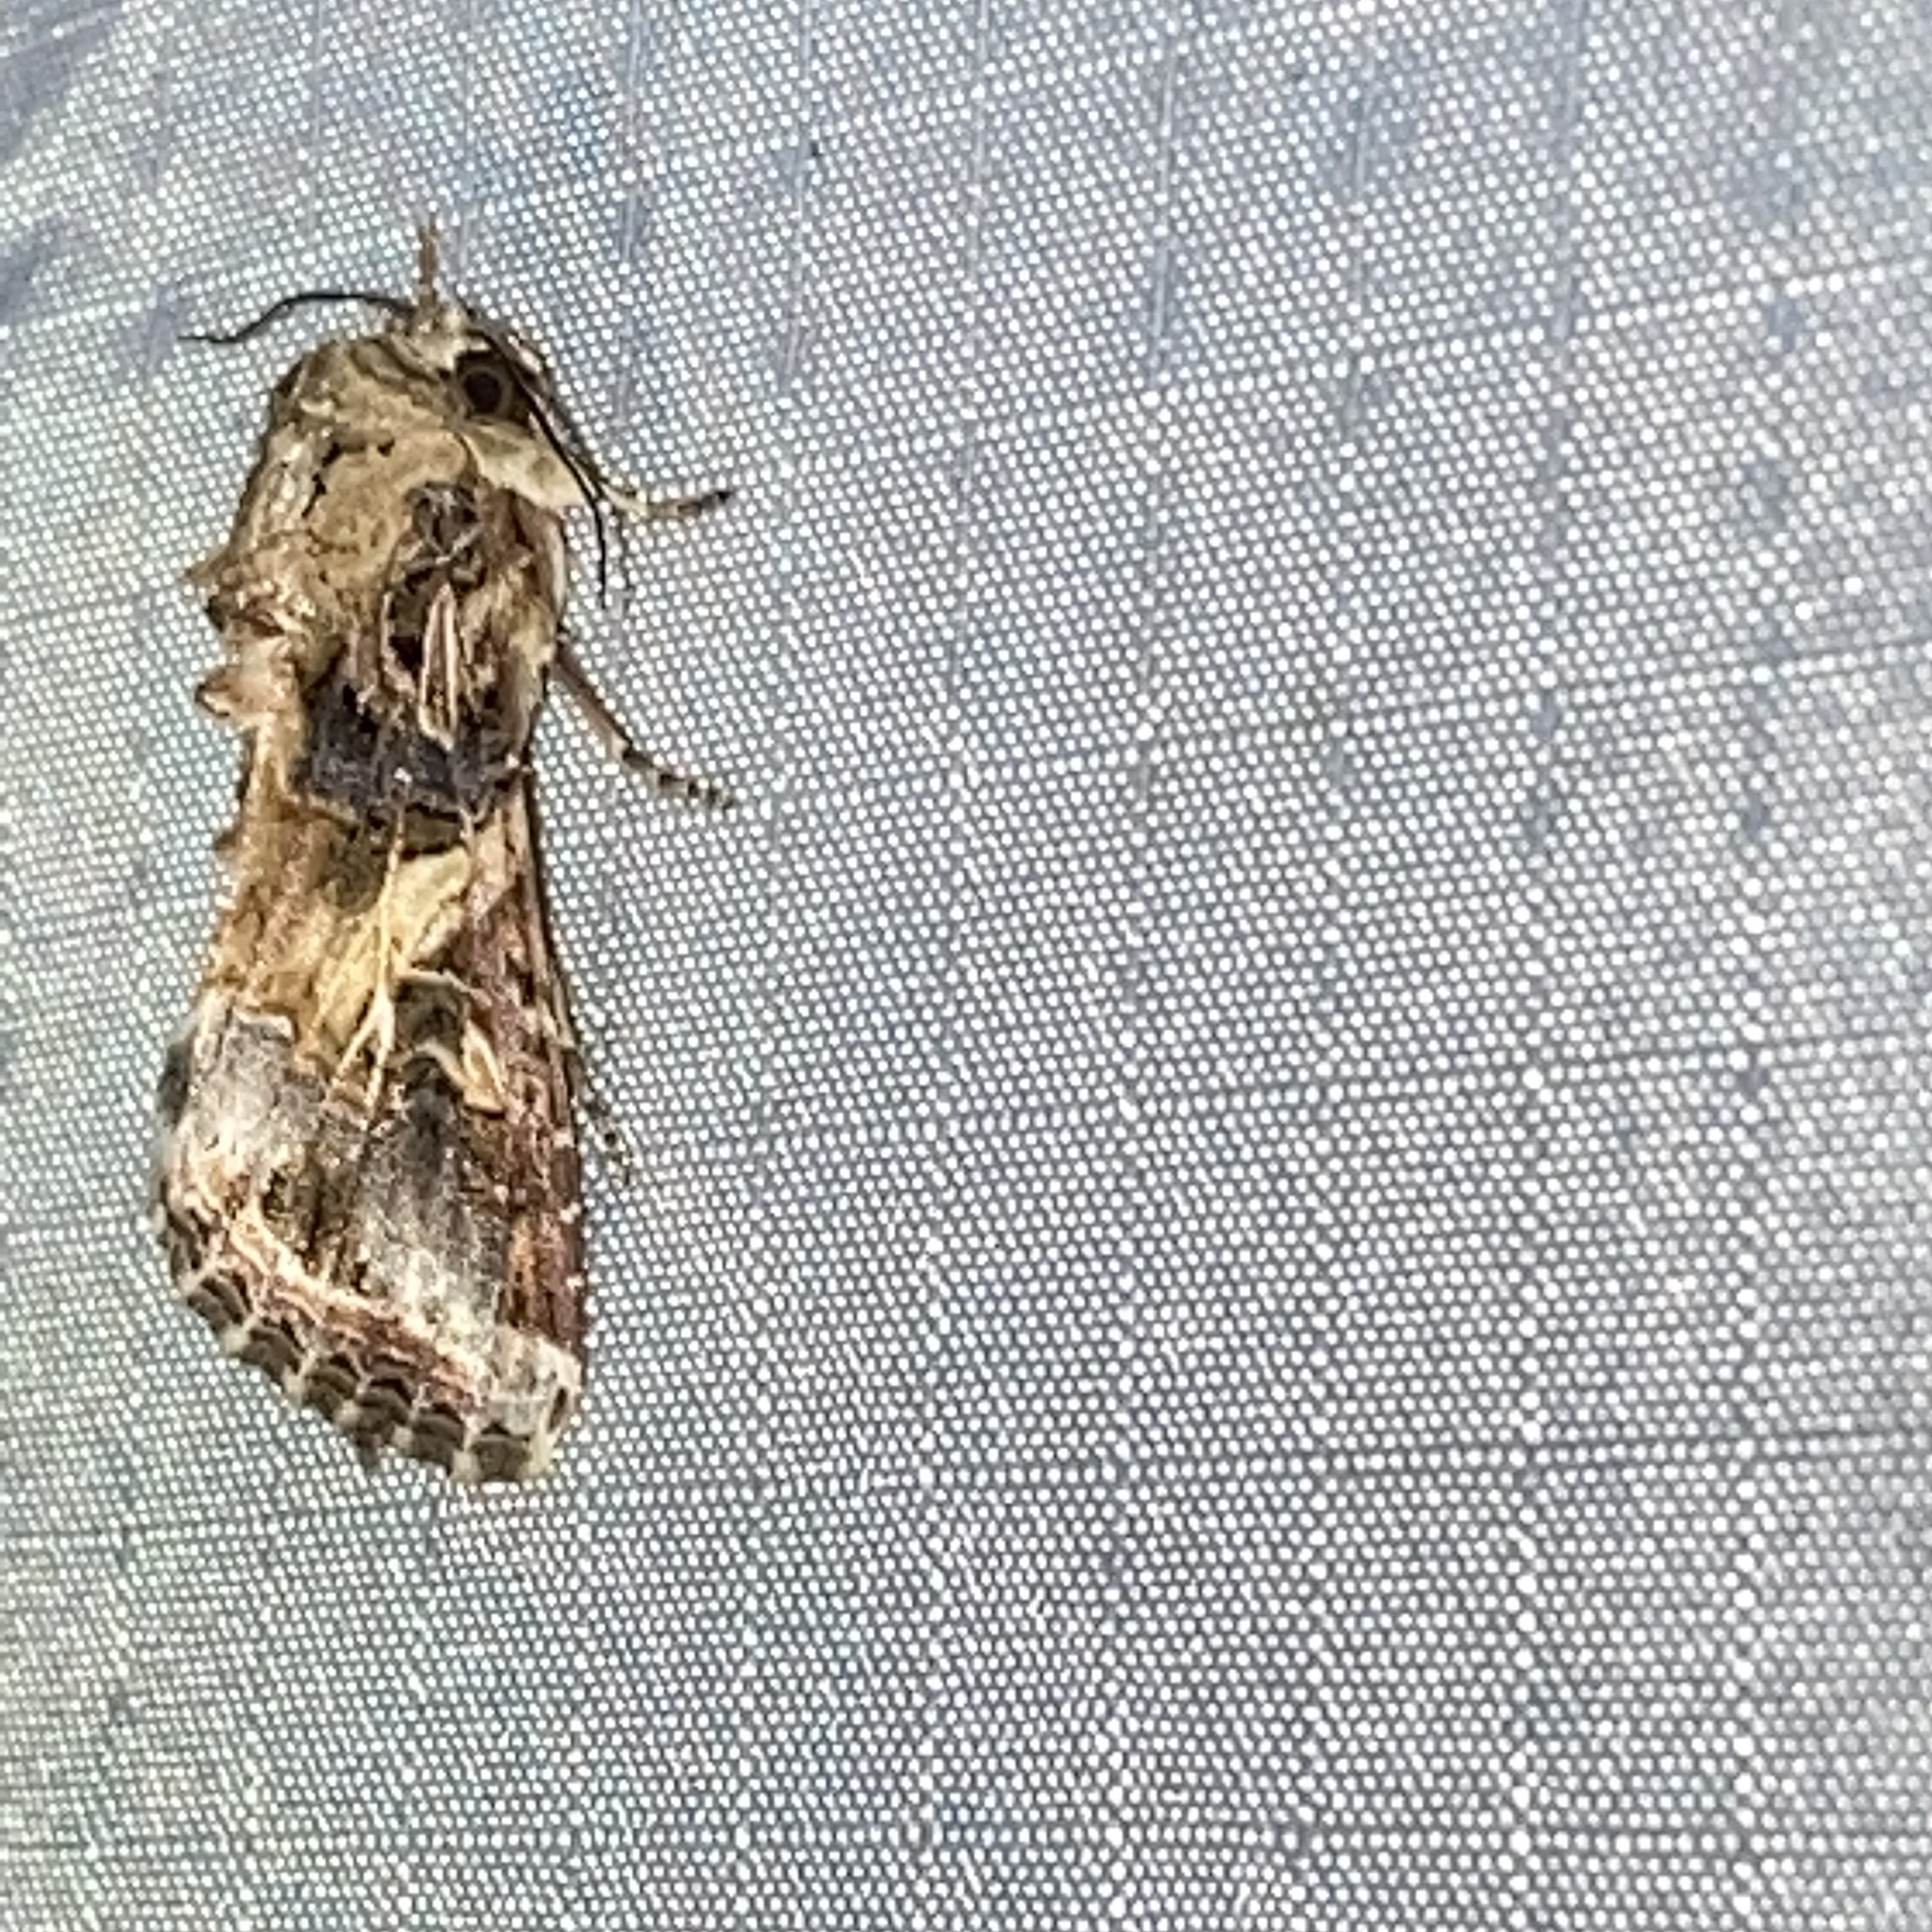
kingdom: Animalia
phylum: Arthropoda
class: Insecta
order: Lepidoptera
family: Noctuidae
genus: Spodoptera
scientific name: Spodoptera ornithogalli
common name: Yellow-striped armyworm
